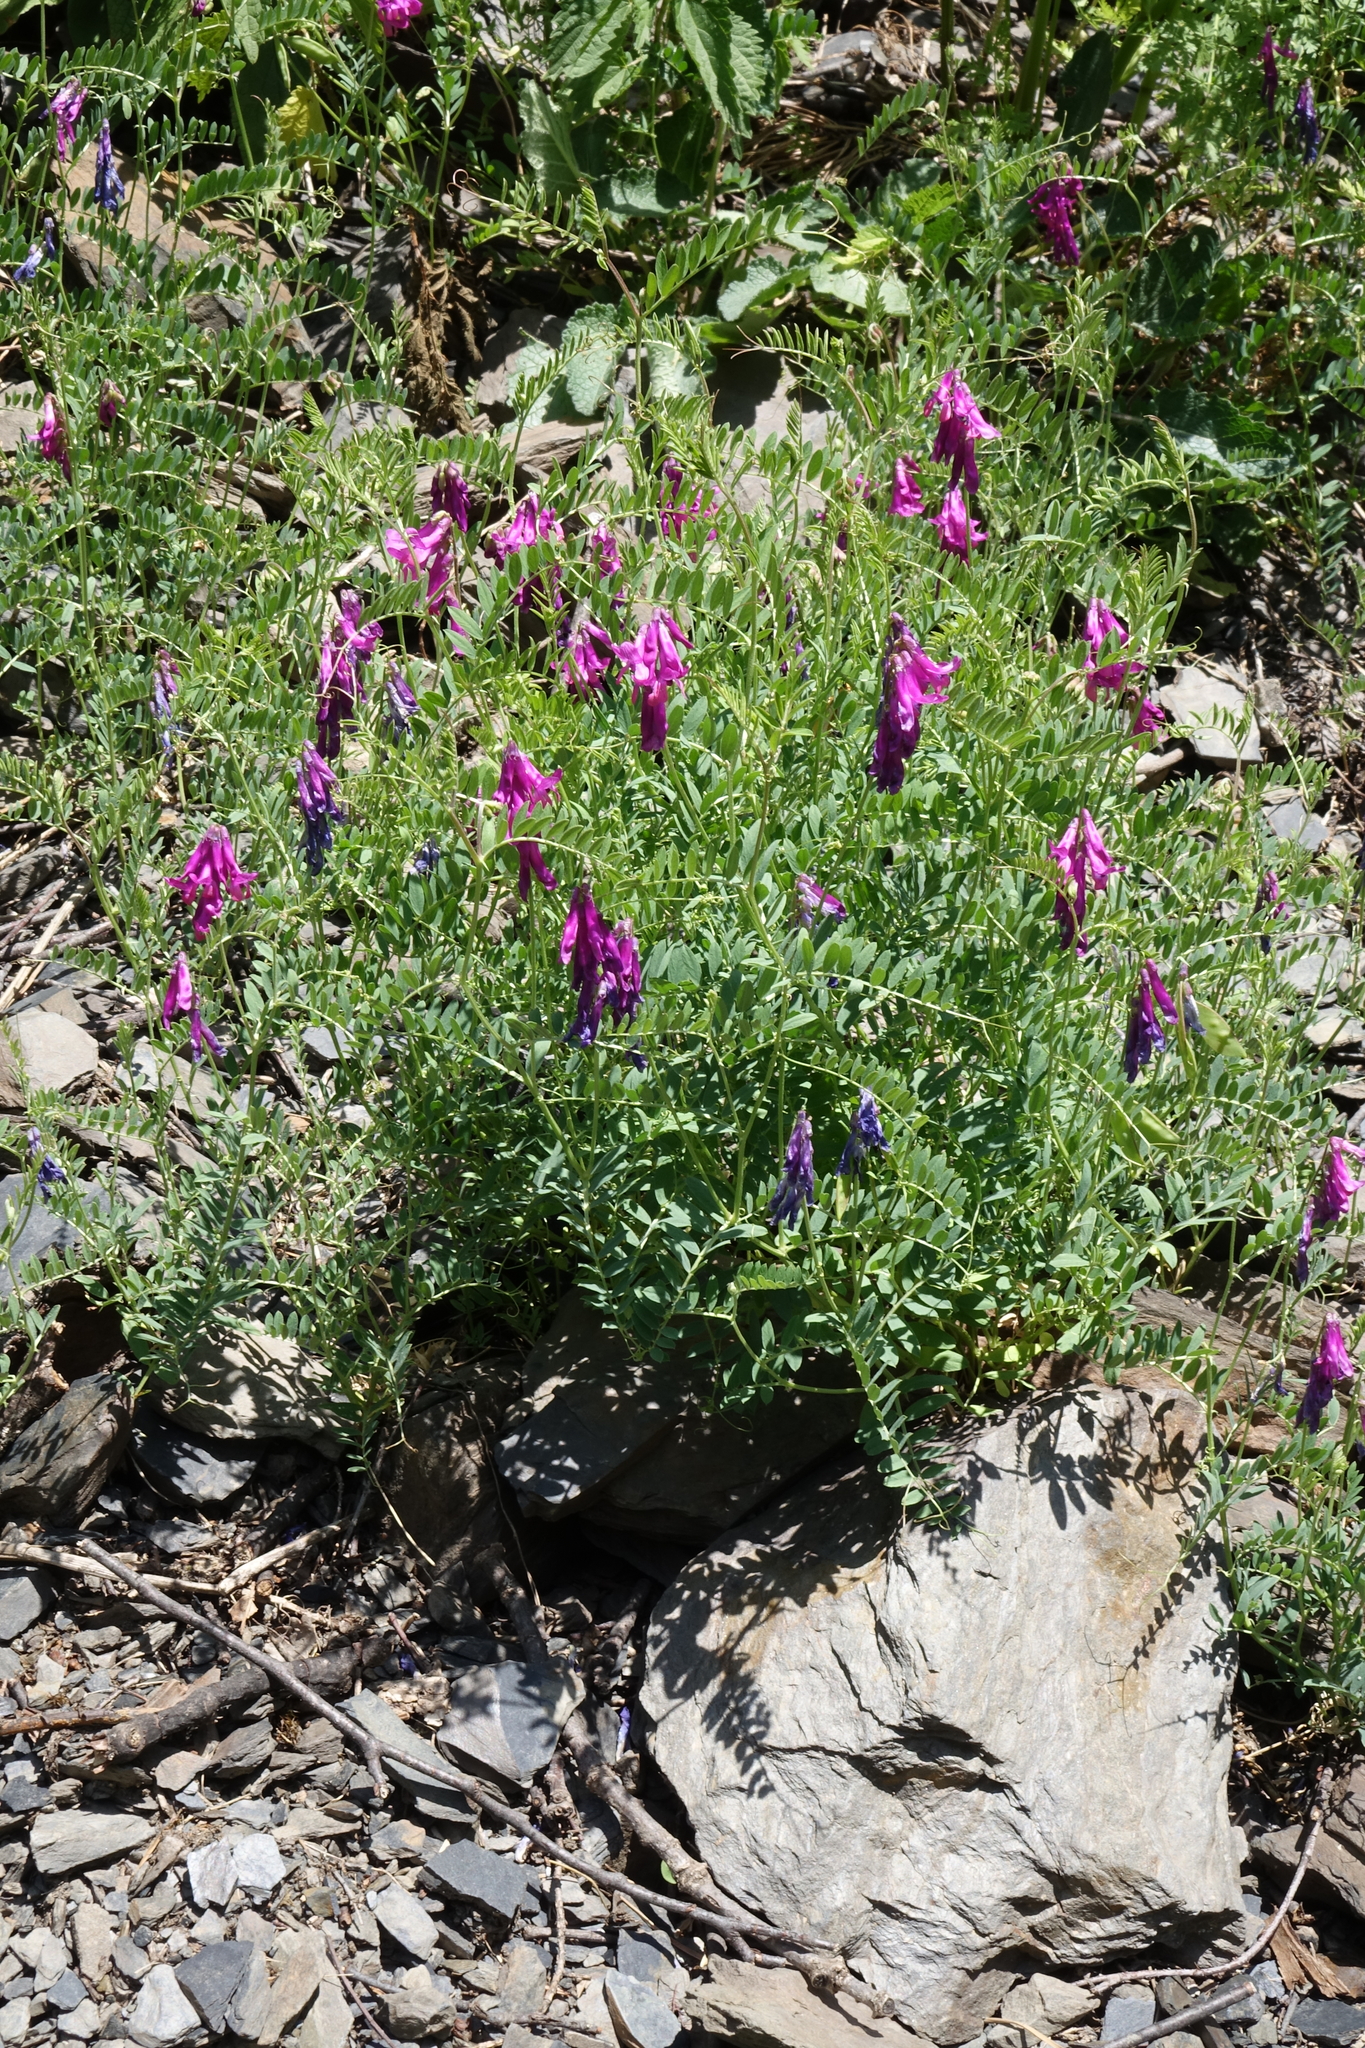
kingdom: Plantae
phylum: Tracheophyta
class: Magnoliopsida
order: Fabales
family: Fabaceae
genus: Vicia
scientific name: Vicia alpestris
